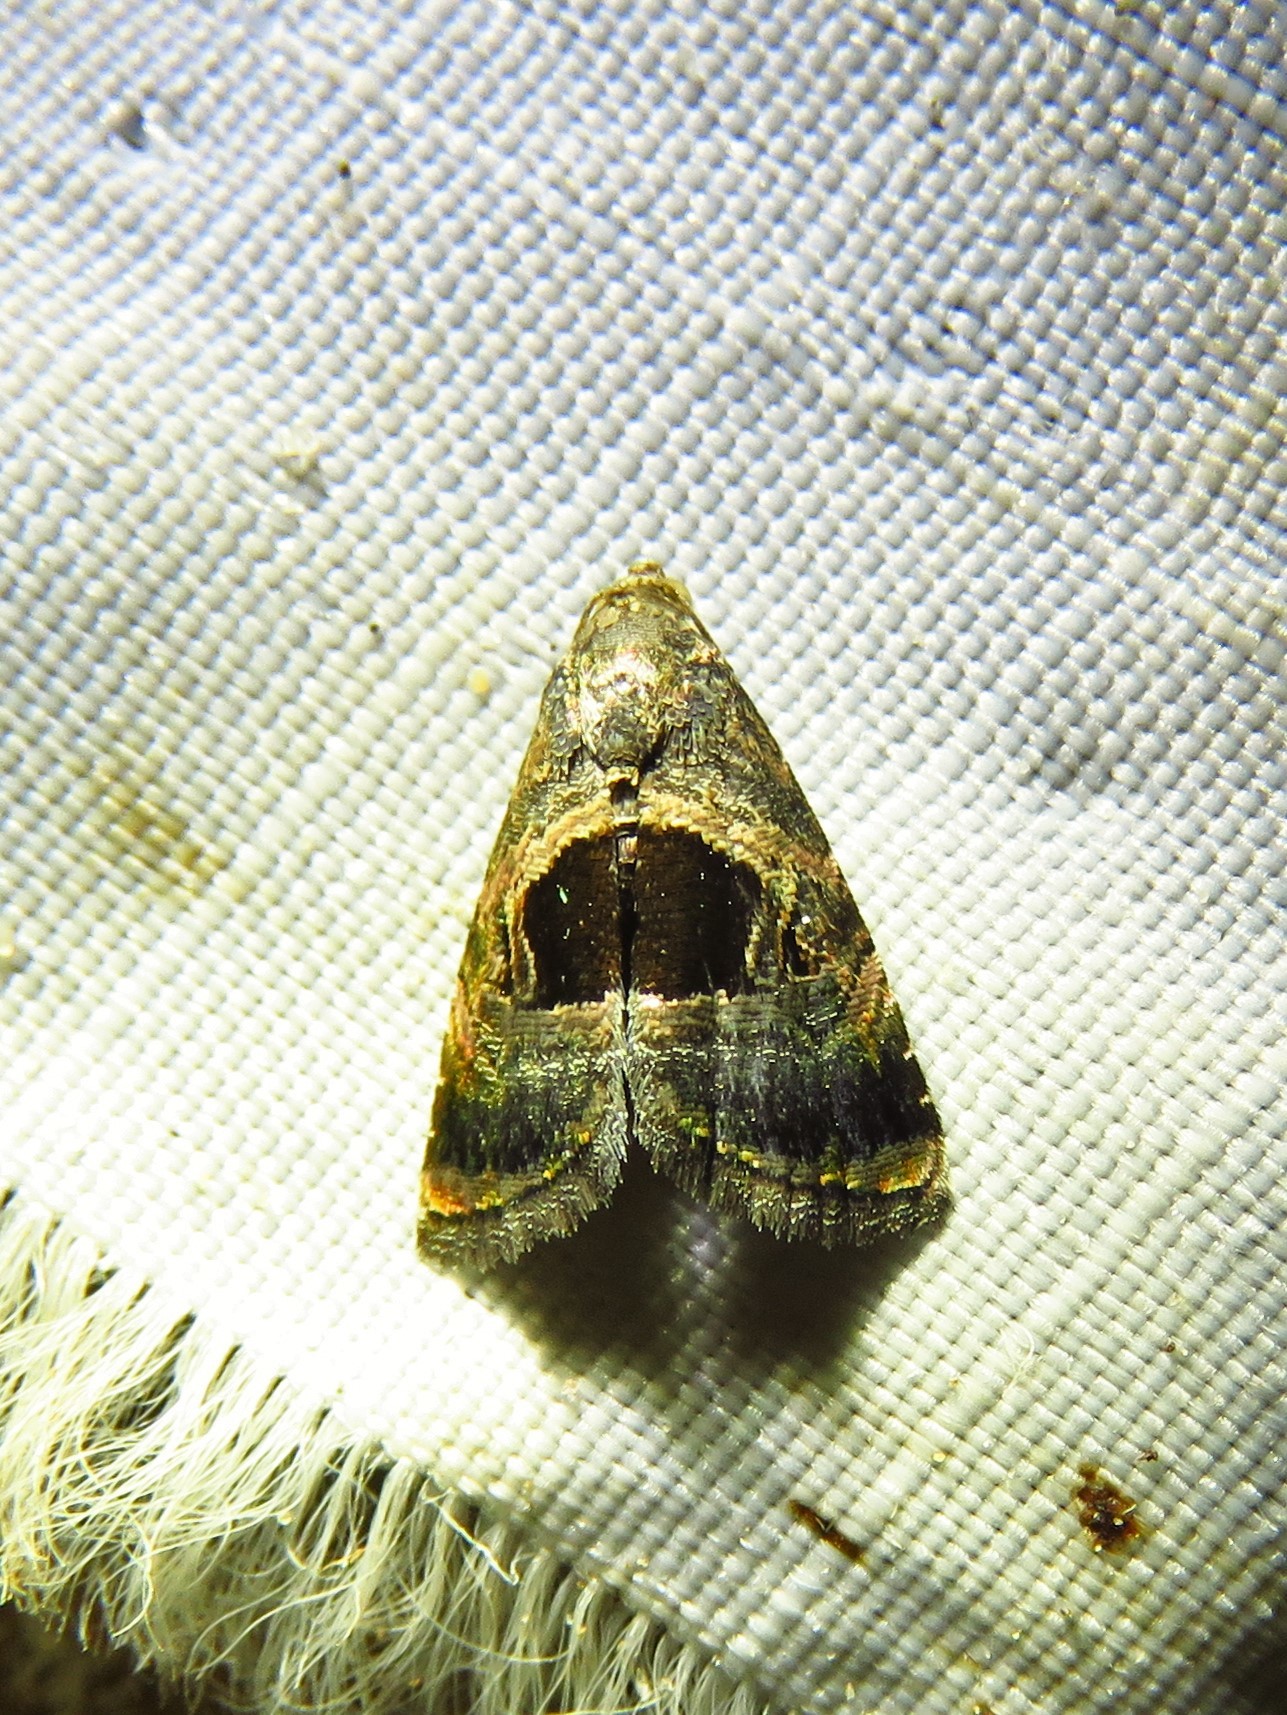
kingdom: Animalia
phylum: Arthropoda
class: Insecta
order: Lepidoptera
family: Noctuidae
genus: Tripudia
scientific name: Tripudia quadrifera
